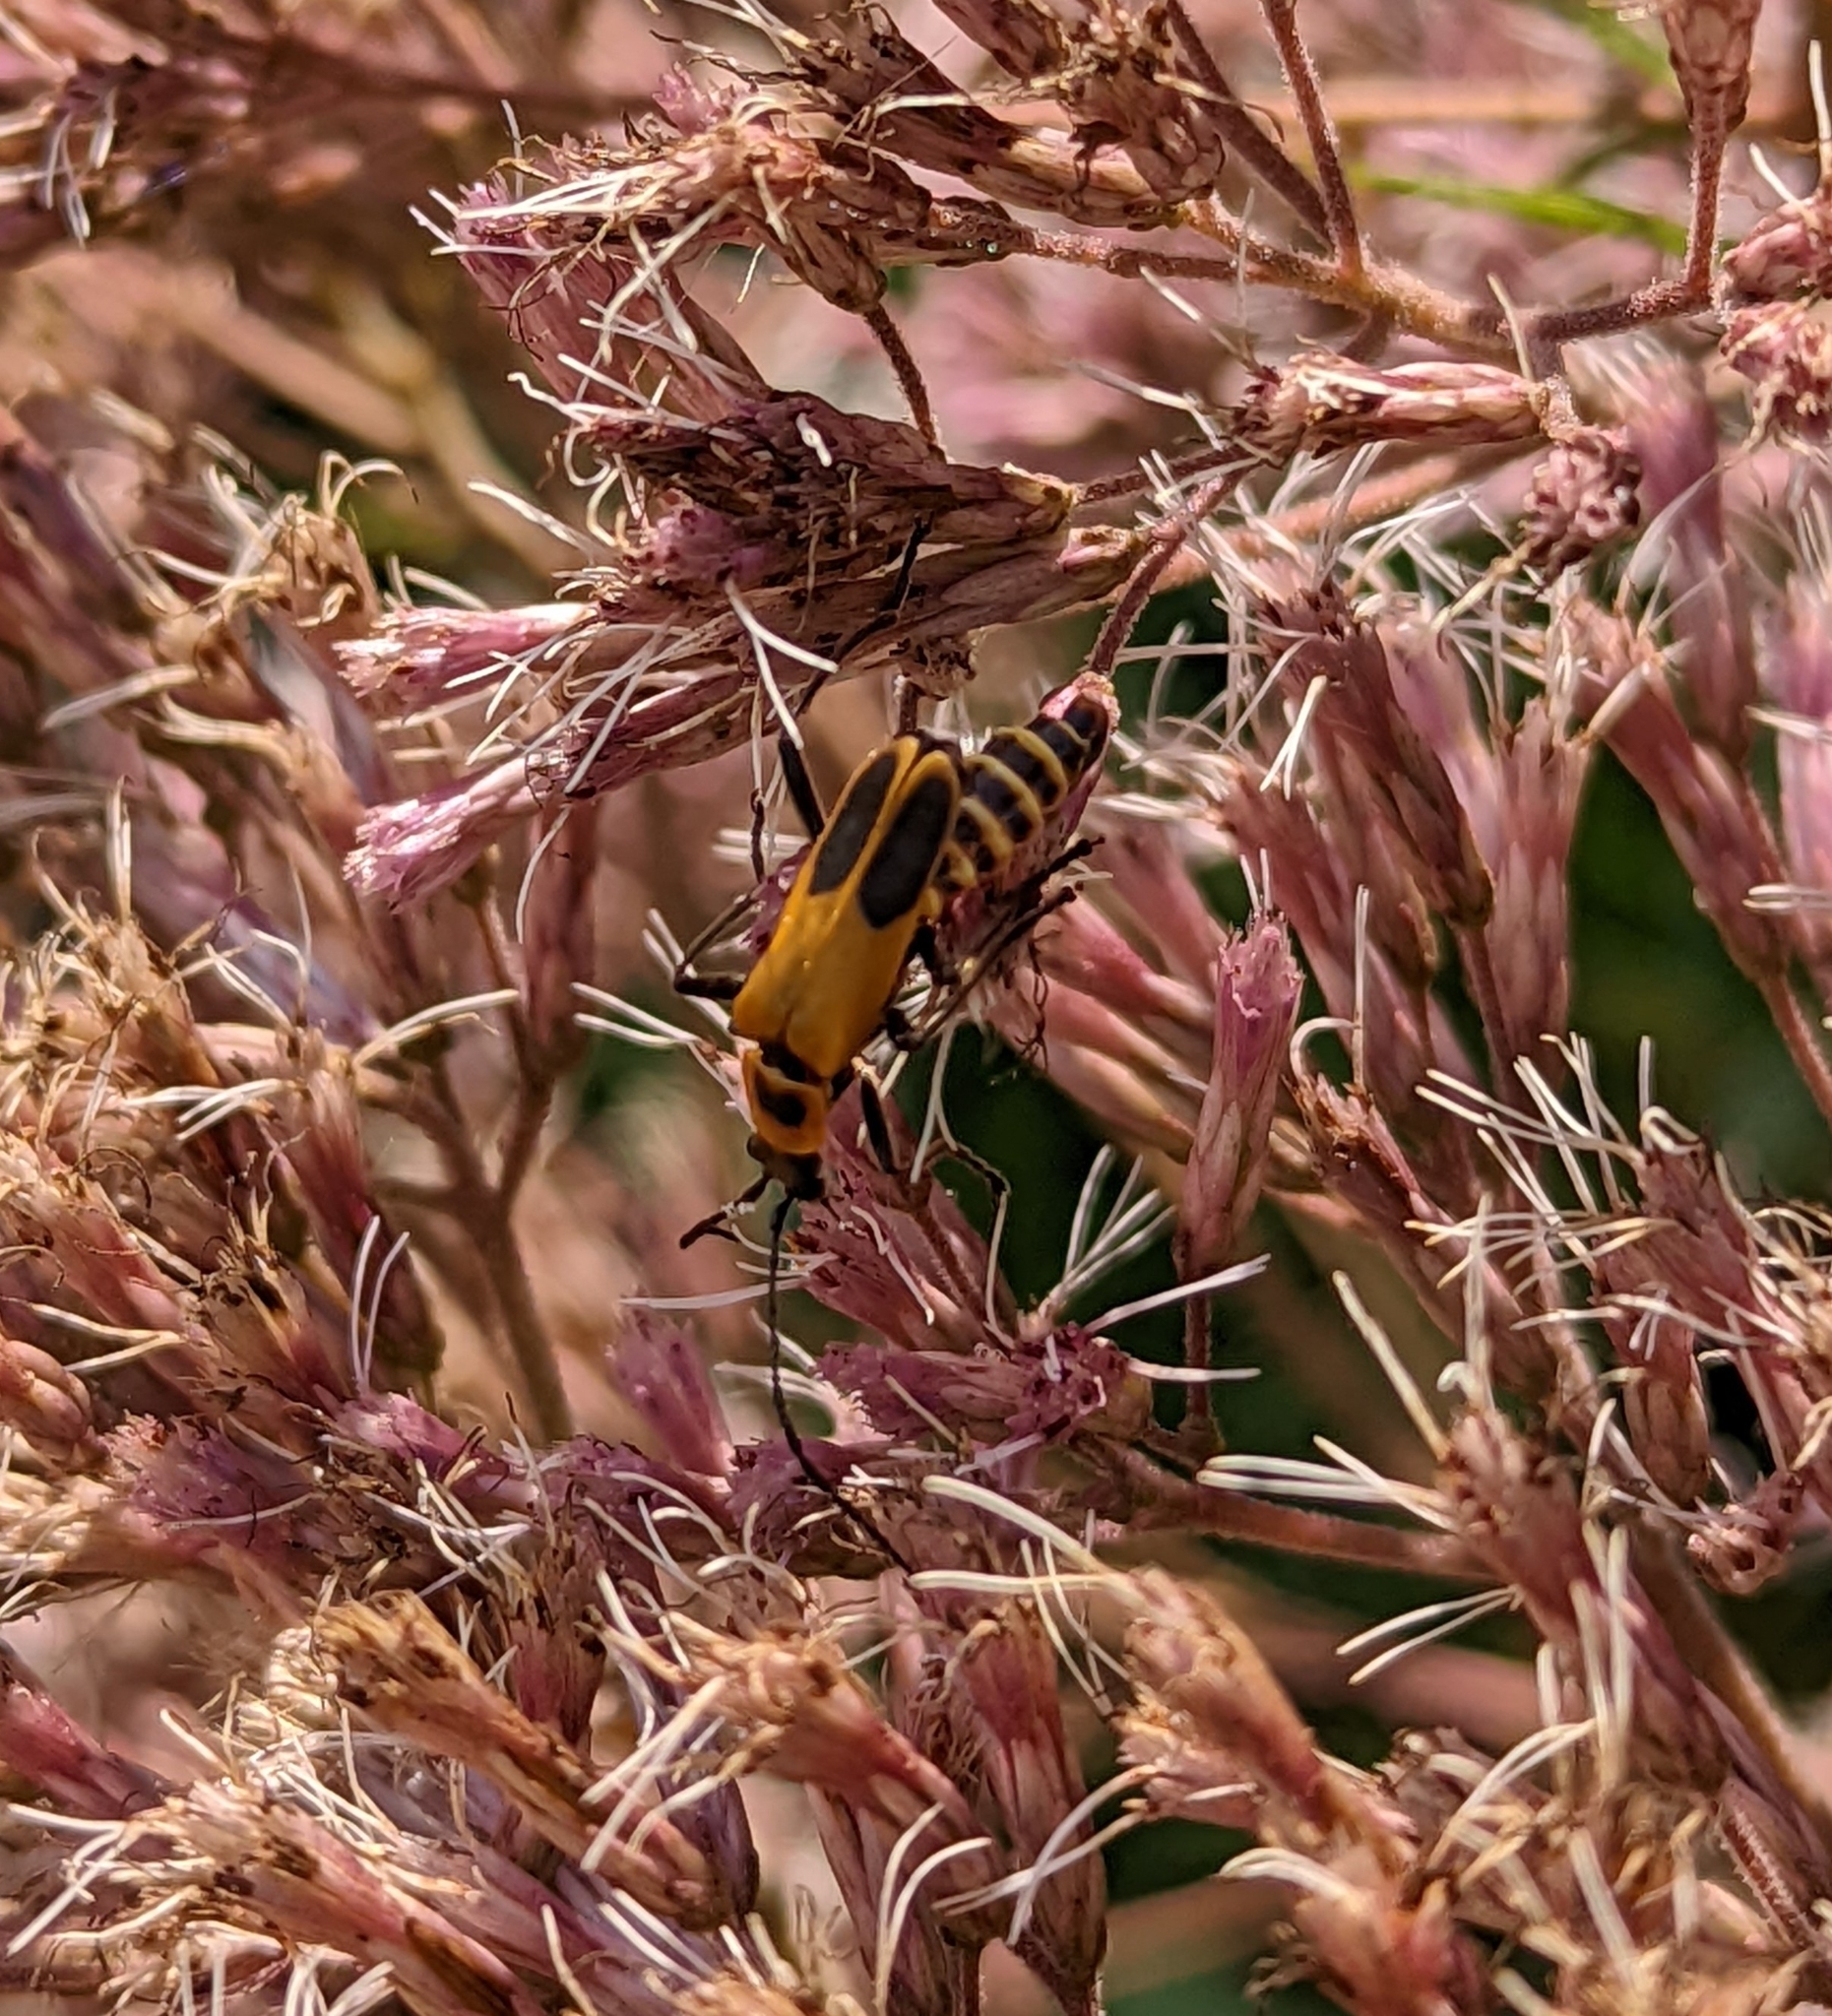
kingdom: Animalia
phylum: Arthropoda
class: Insecta
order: Coleoptera
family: Cantharidae
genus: Chauliognathus
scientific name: Chauliognathus pensylvanicus
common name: Goldenrod soldier beetle
